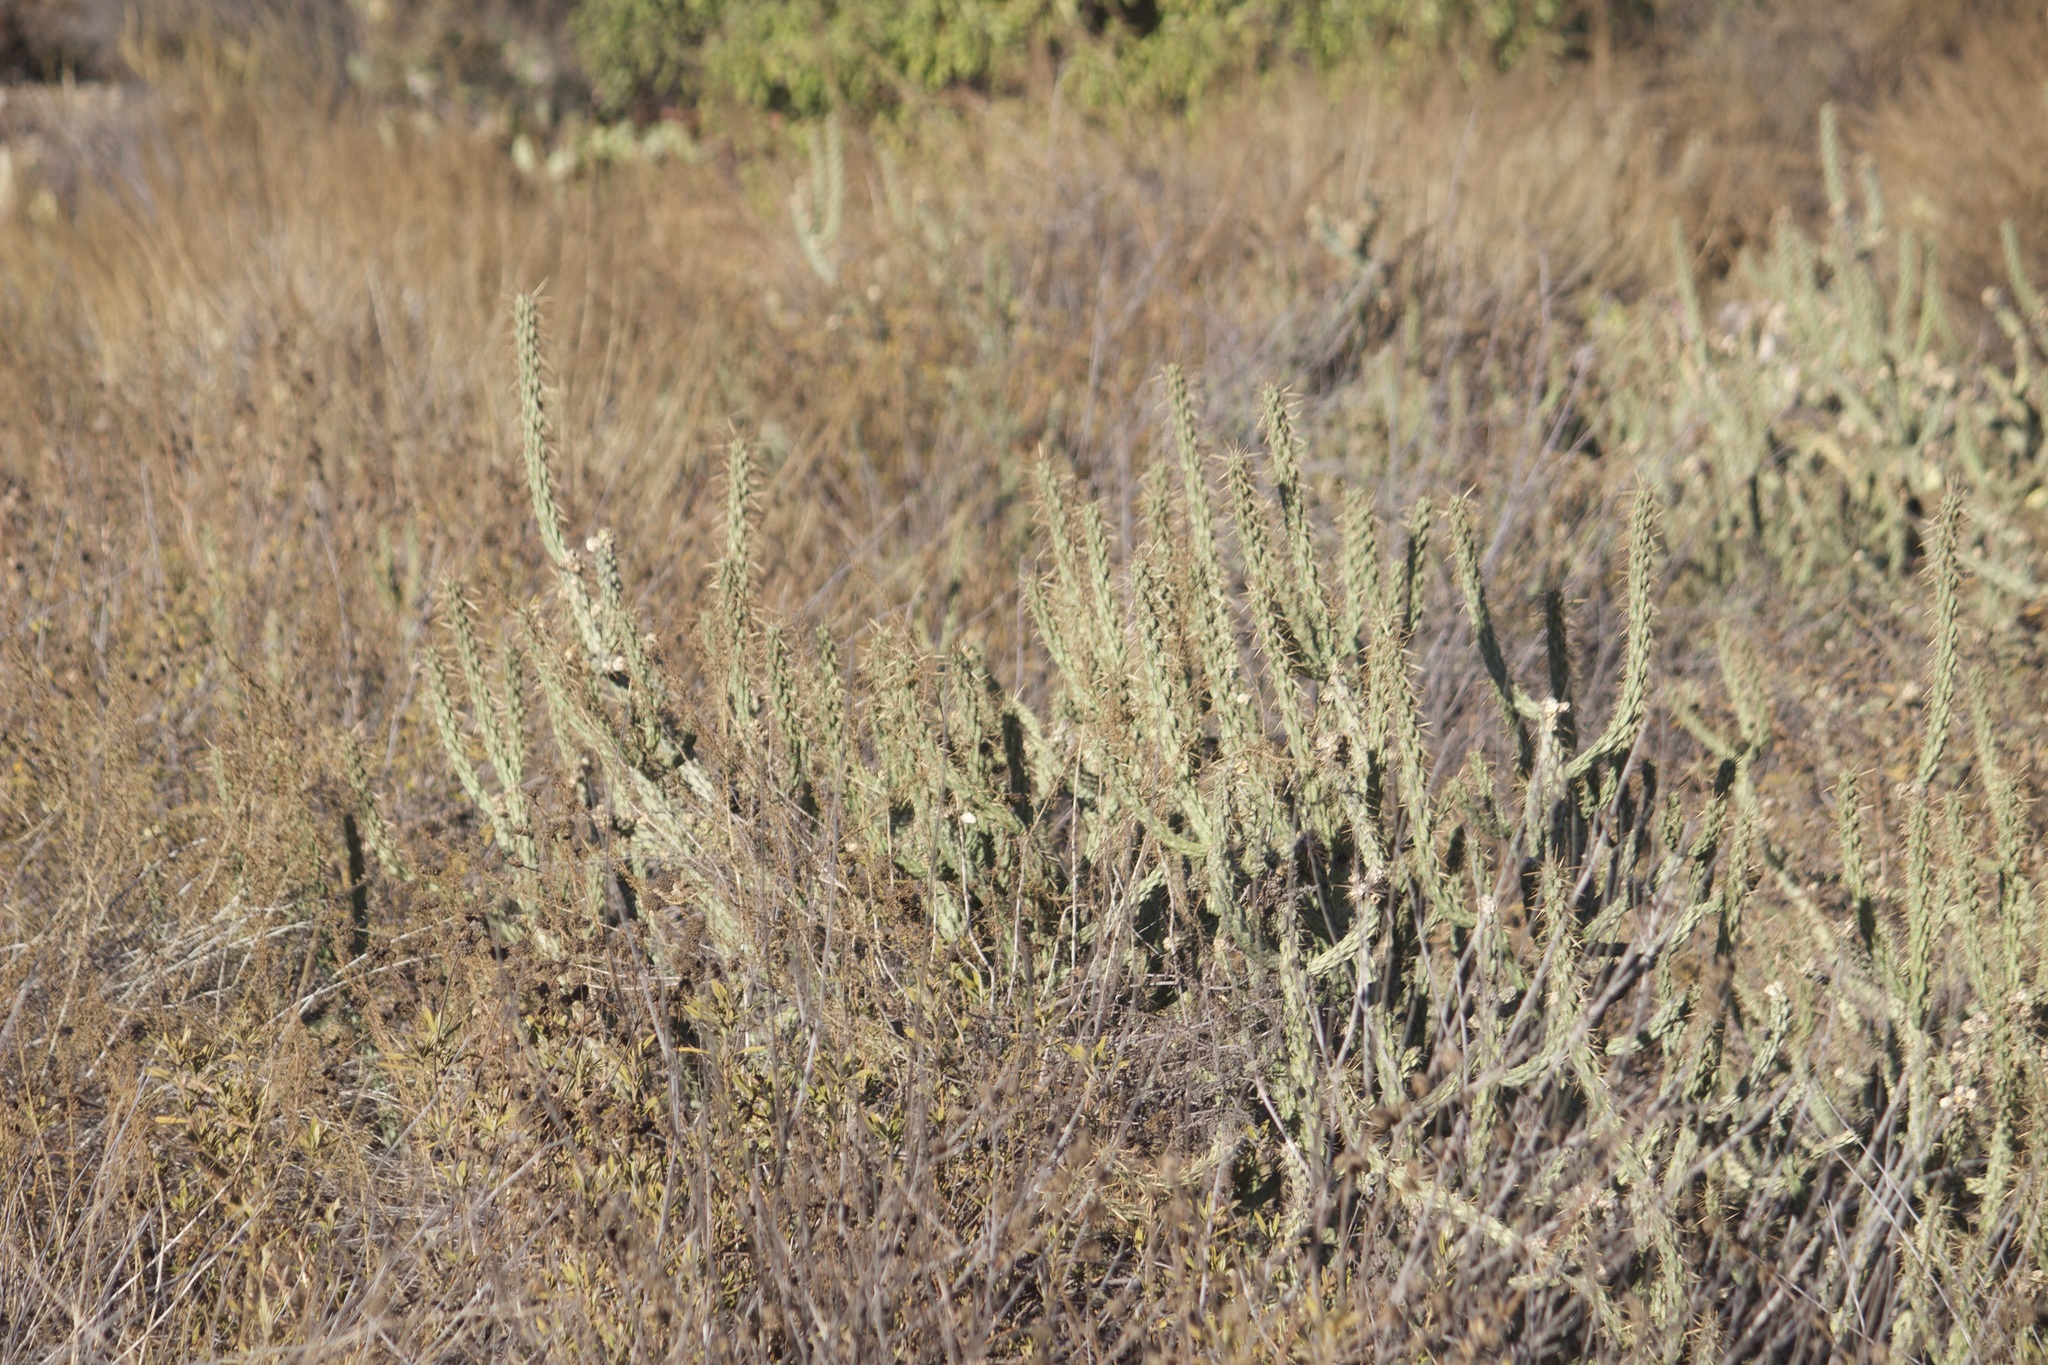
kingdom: Plantae
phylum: Tracheophyta
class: Magnoliopsida
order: Caryophyllales
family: Cactaceae
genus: Cylindropuntia
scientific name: Cylindropuntia bernardina
